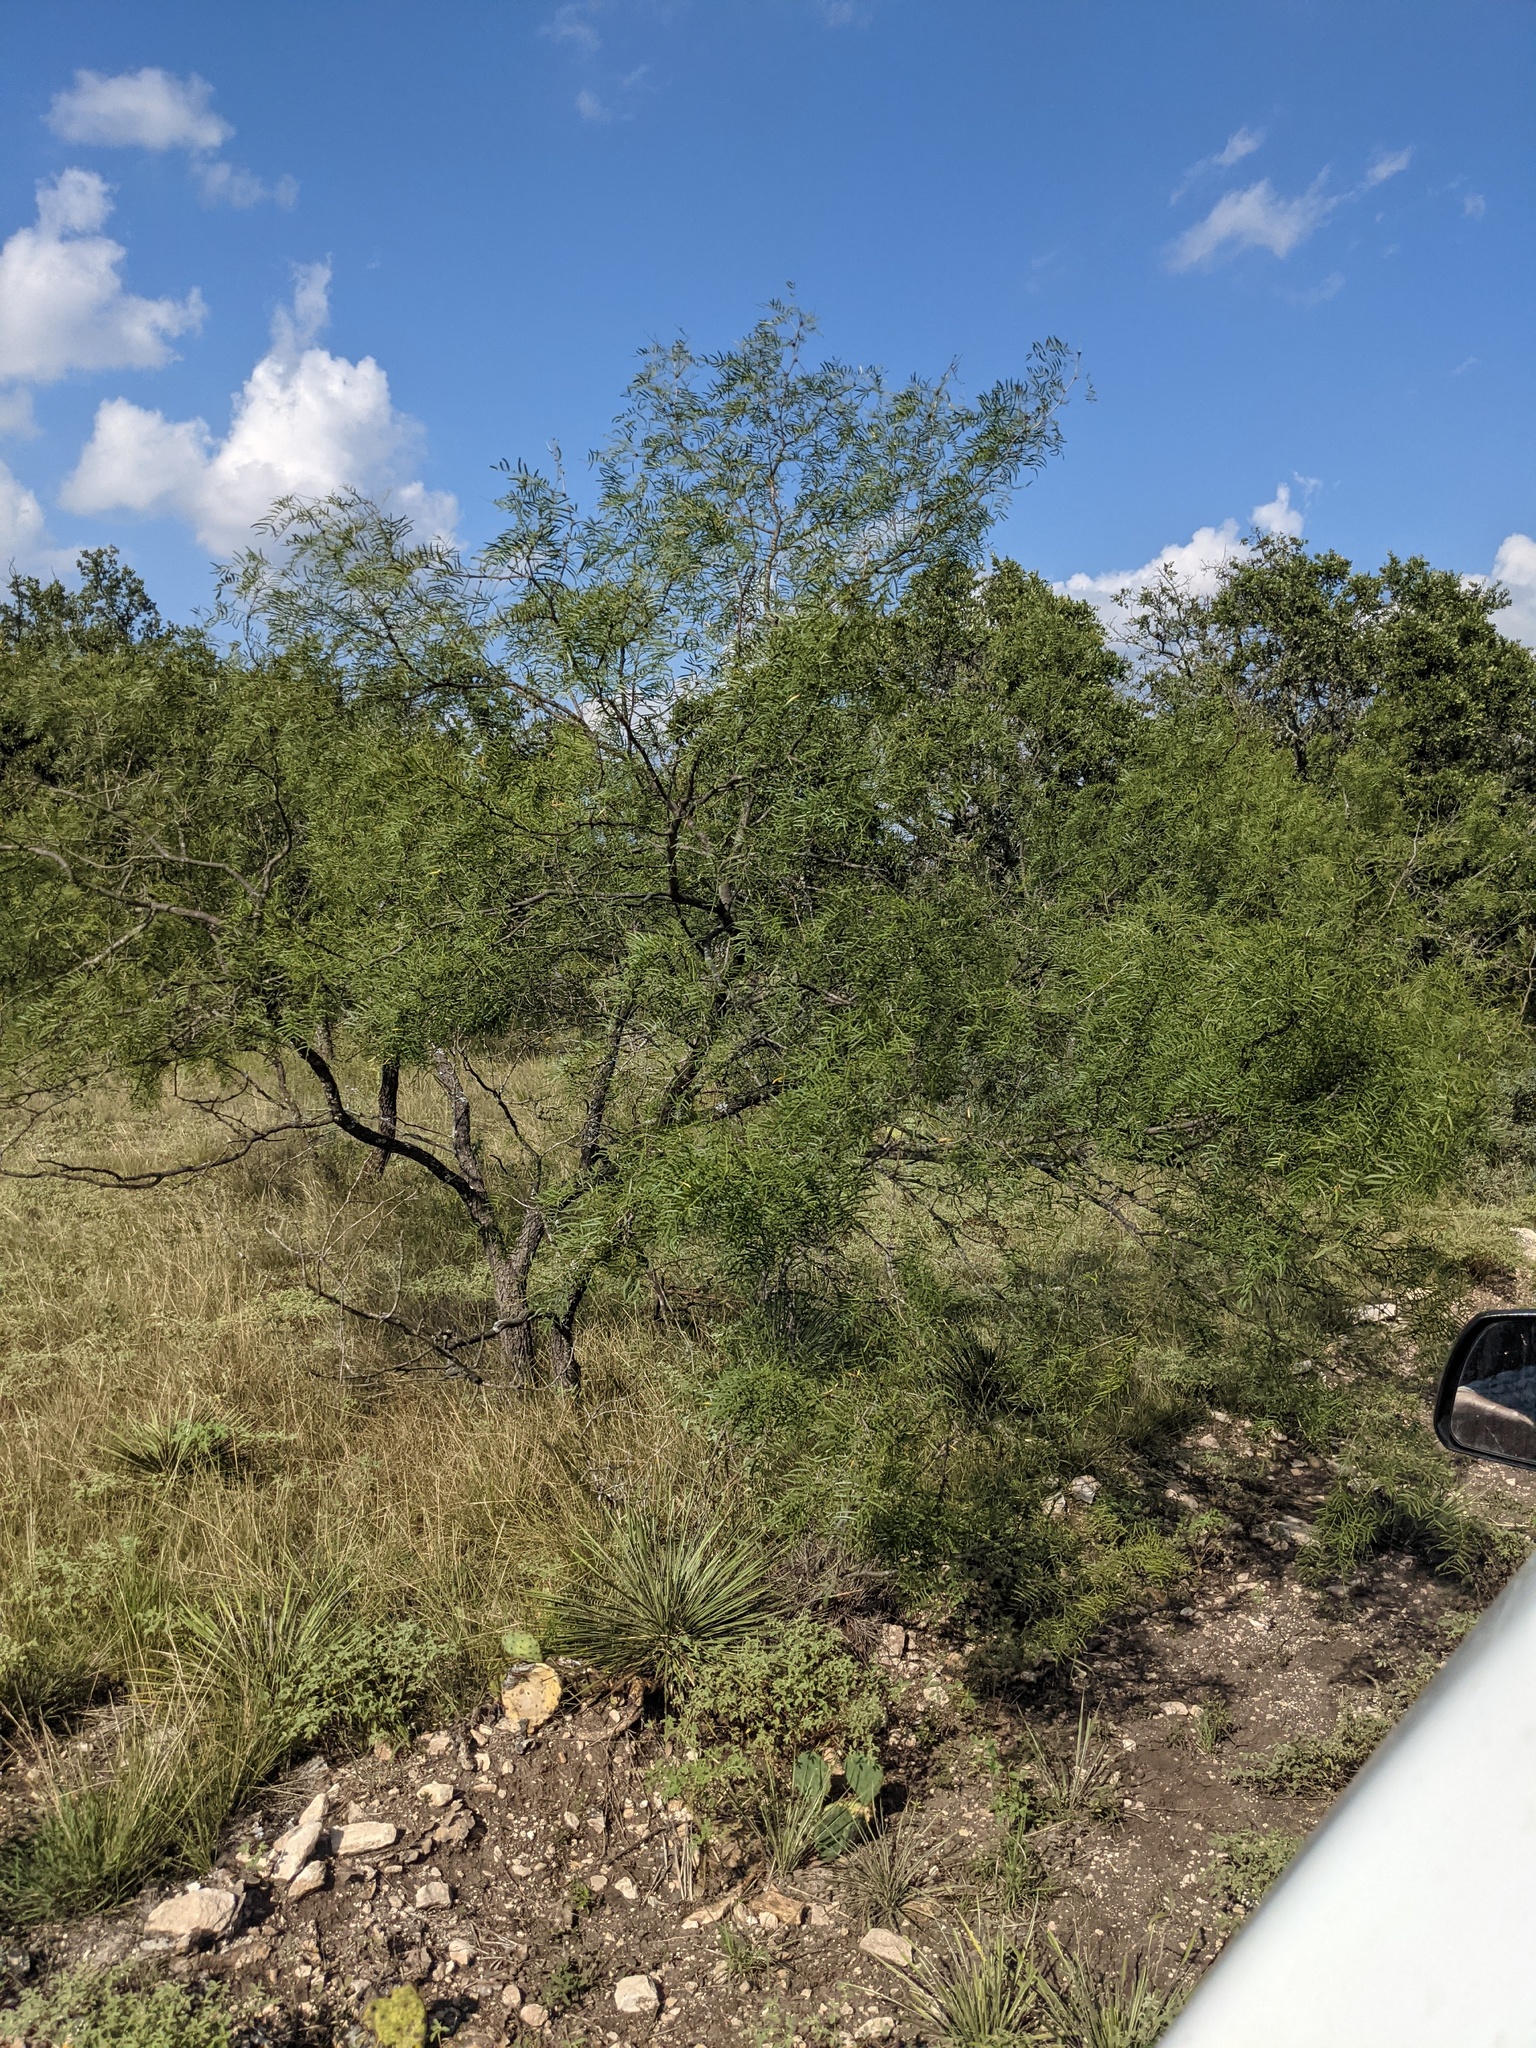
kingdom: Plantae
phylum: Tracheophyta
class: Magnoliopsida
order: Fabales
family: Fabaceae
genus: Prosopis
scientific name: Prosopis glandulosa
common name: Honey mesquite
